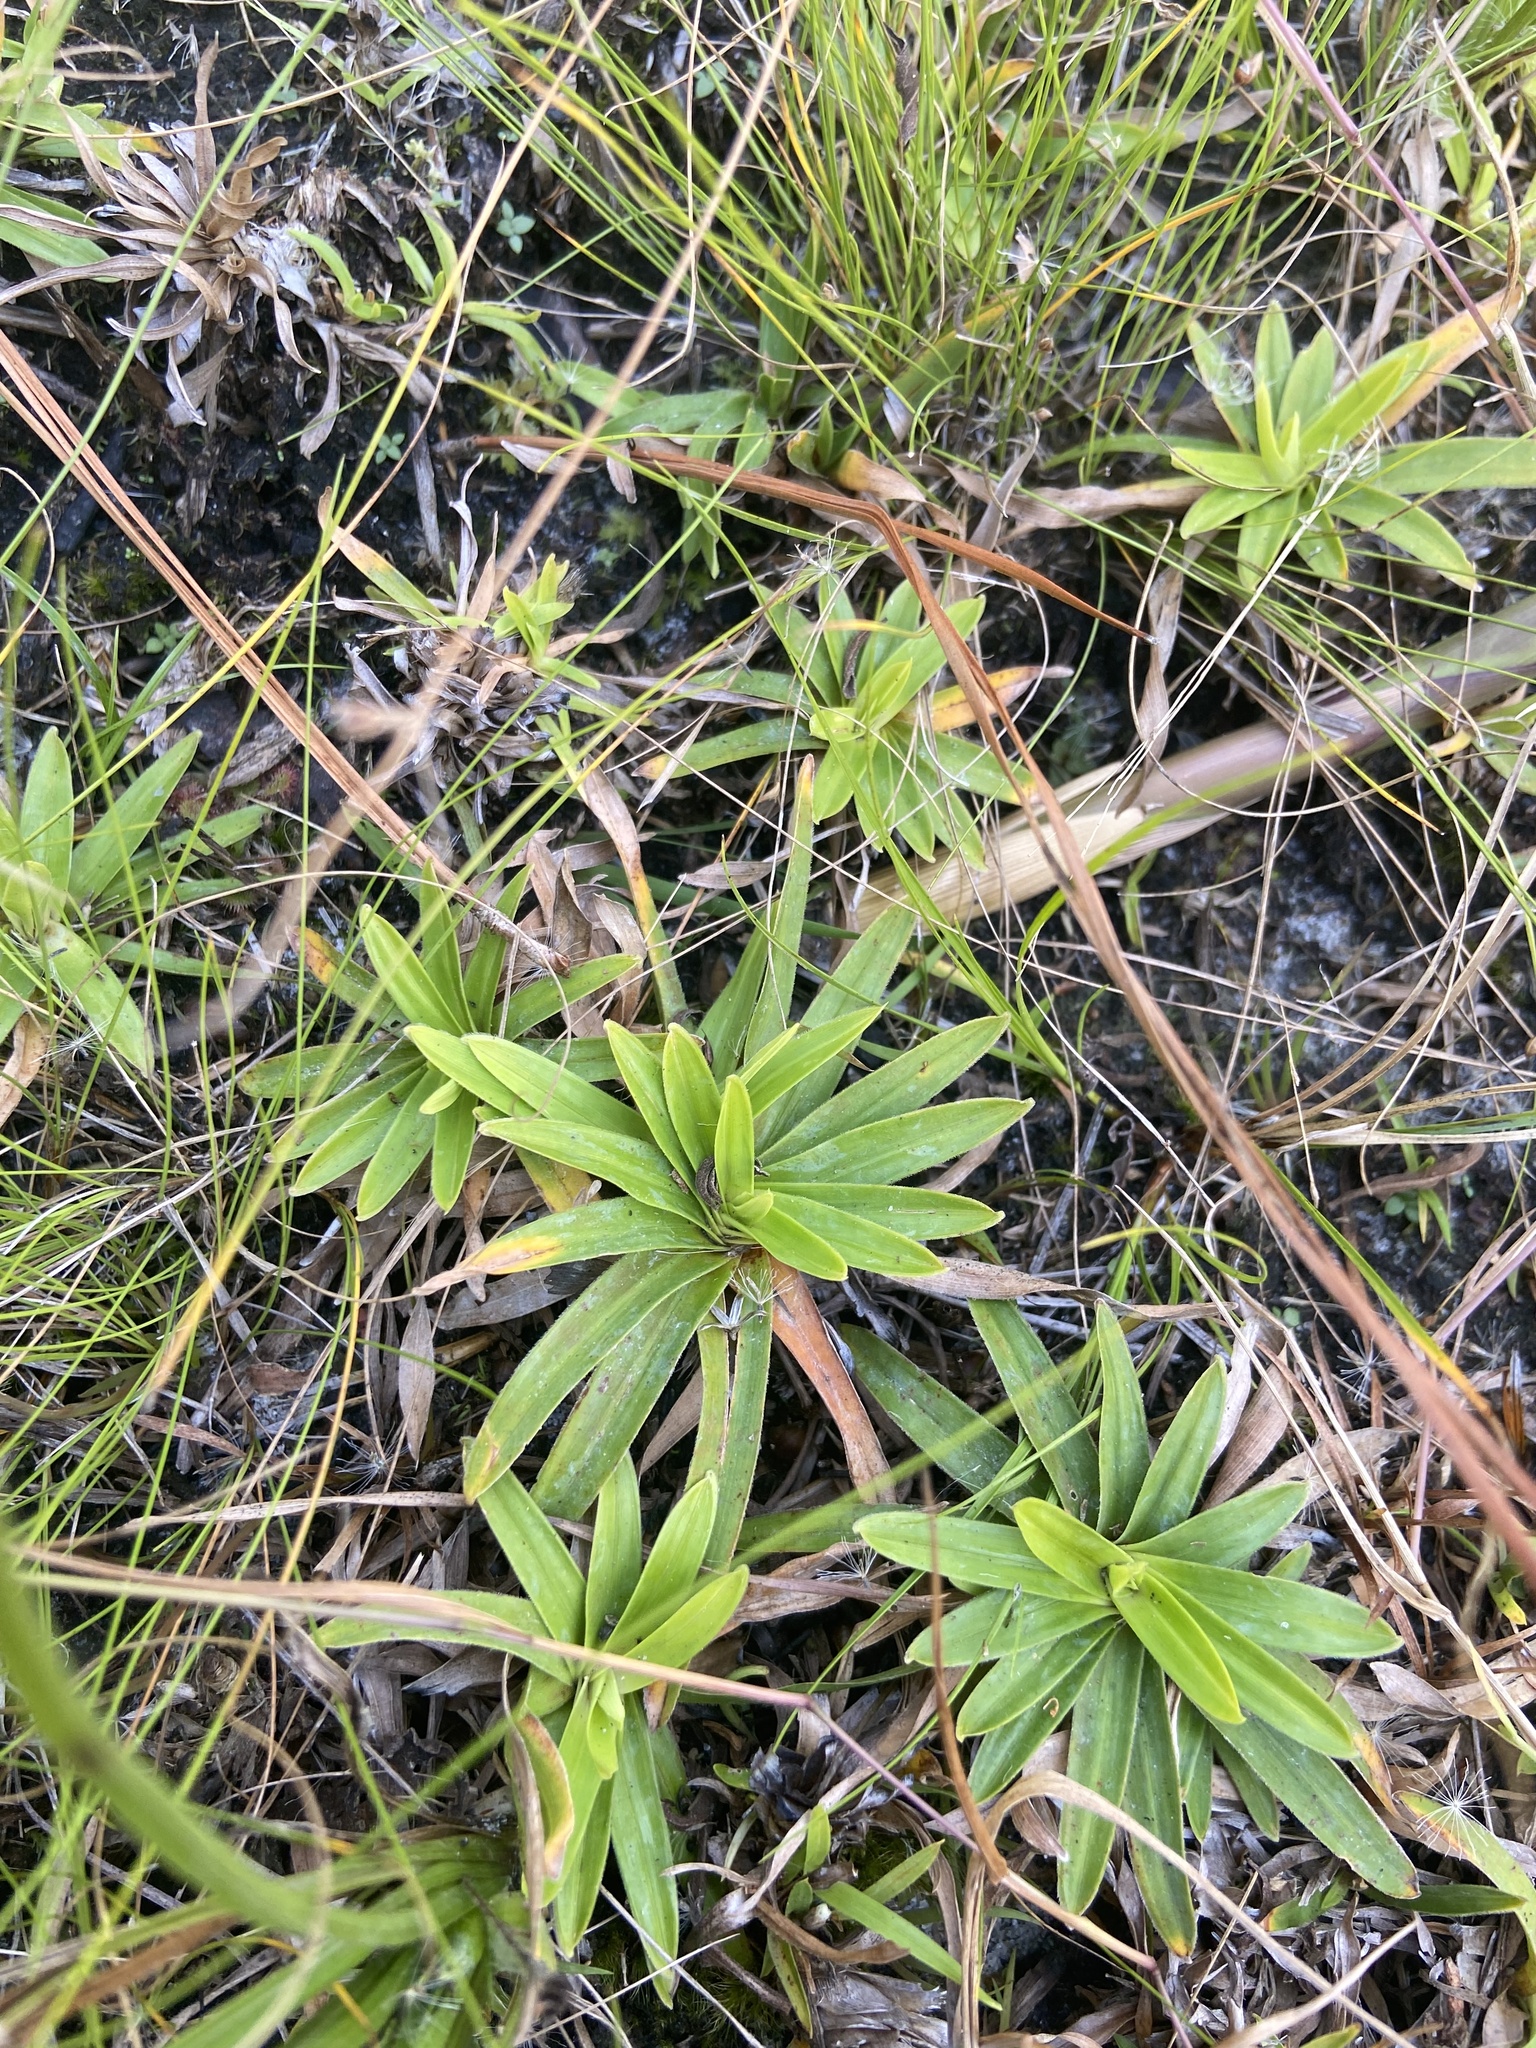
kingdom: Plantae
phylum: Tracheophyta
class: Liliopsida
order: Poales
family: Cyperaceae
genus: Rhynchospora
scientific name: Rhynchospora ciliaris
